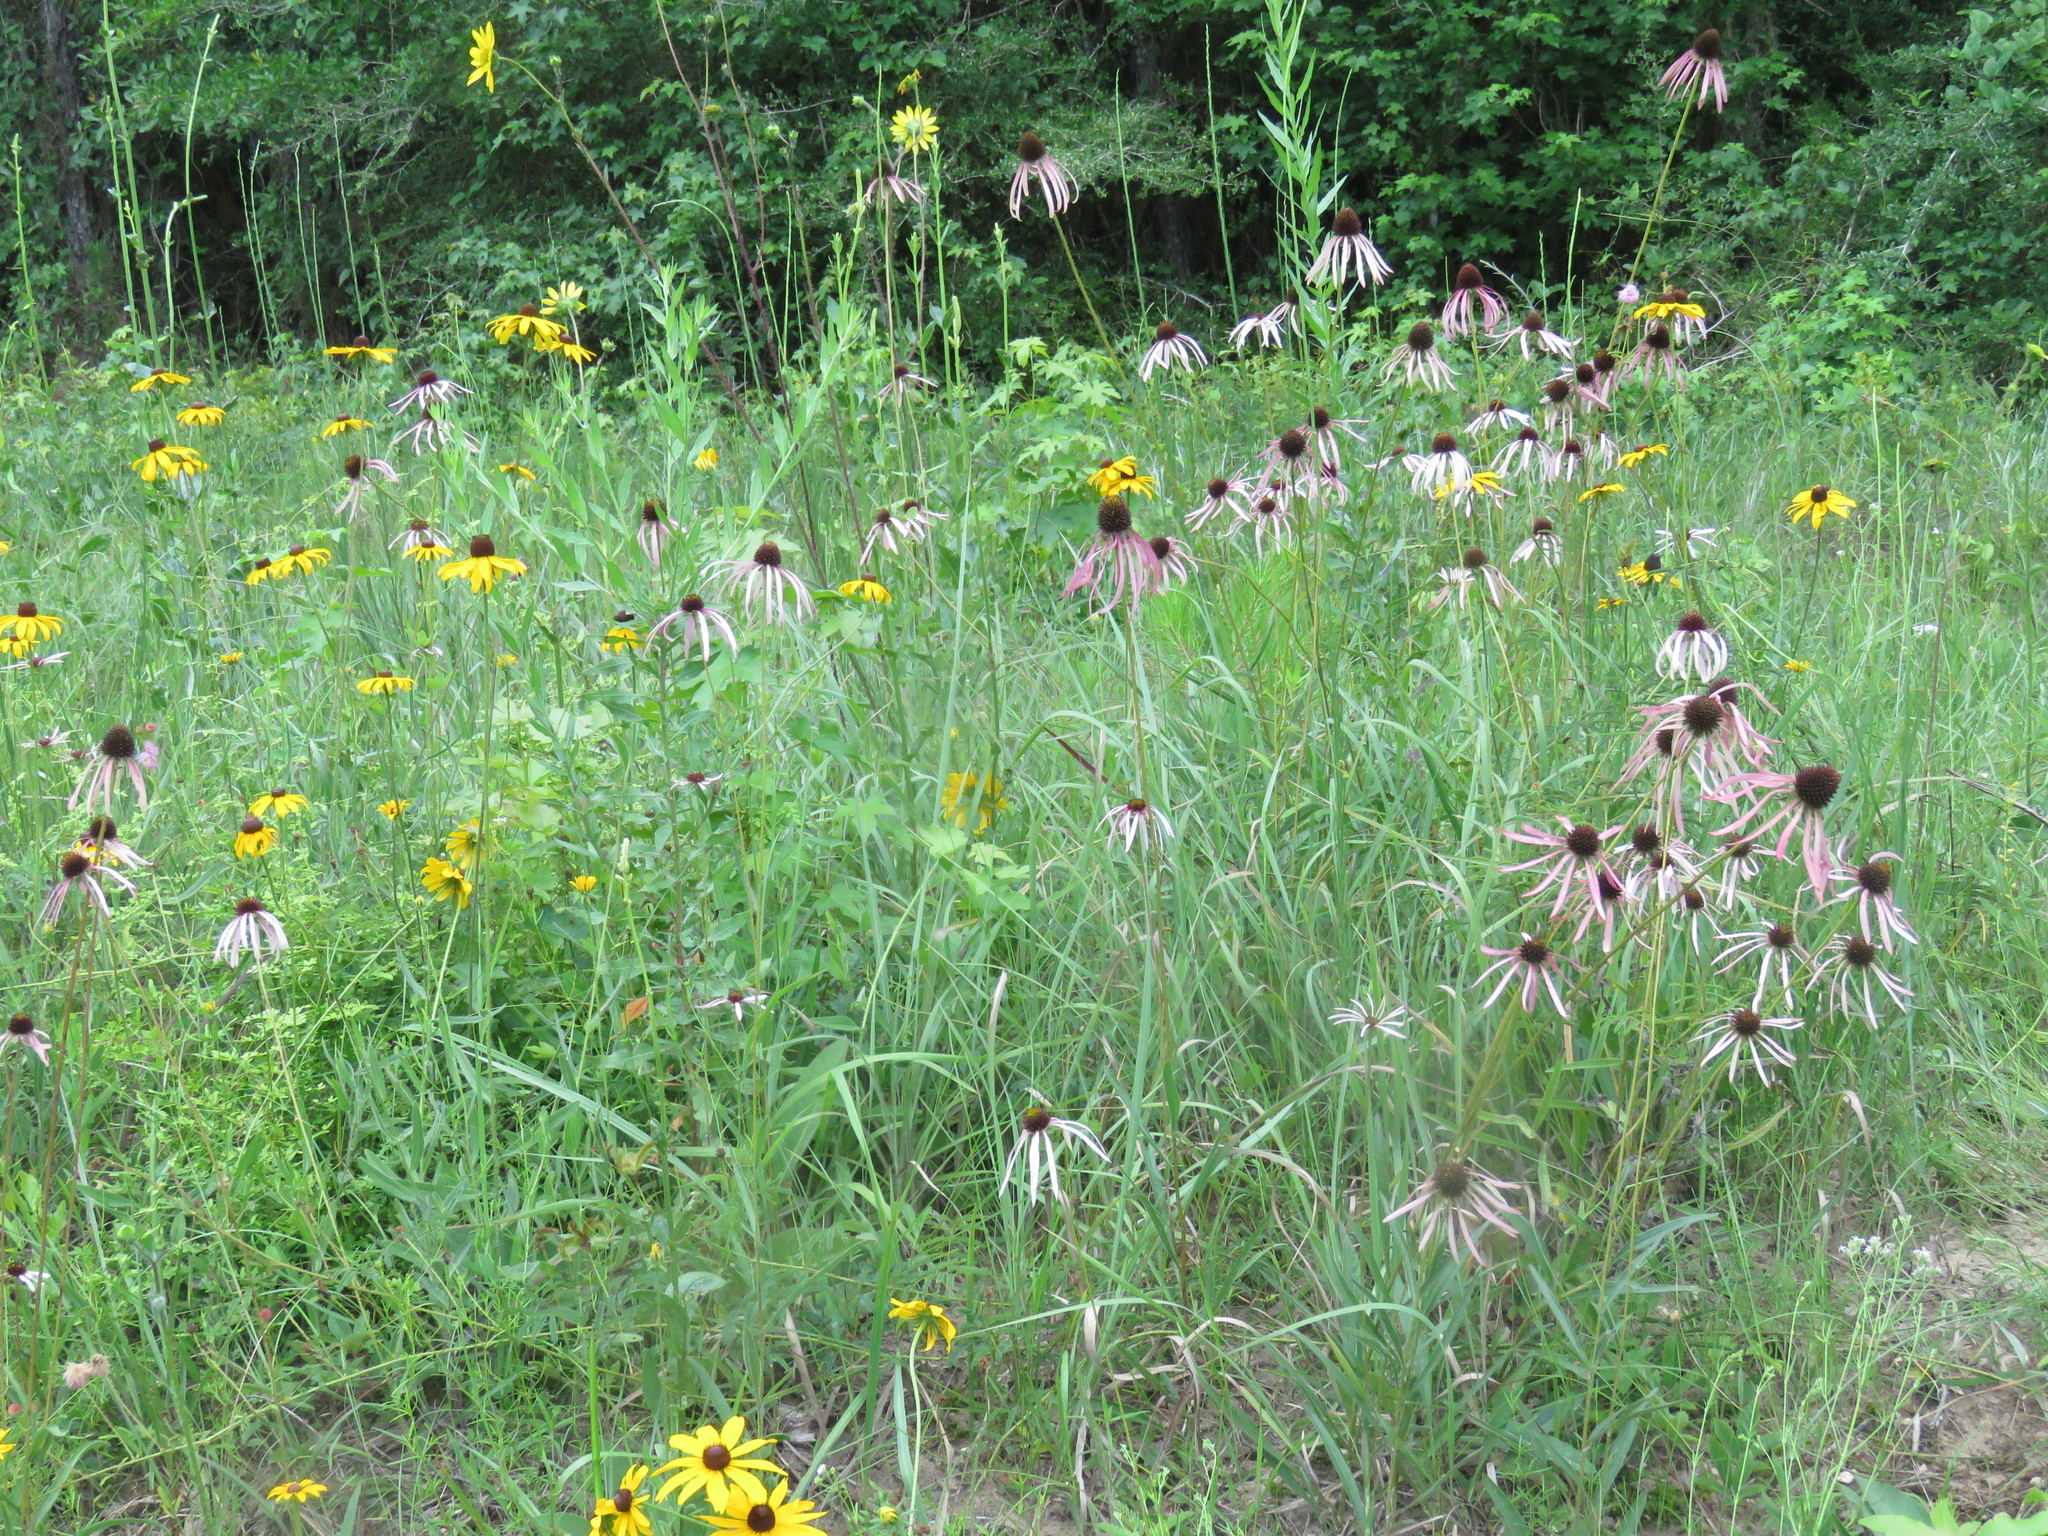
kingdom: Plantae
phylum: Tracheophyta
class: Magnoliopsida
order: Asterales
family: Asteraceae
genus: Echinacea
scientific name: Echinacea sanguinea
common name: Sanguine purple-coneflower
